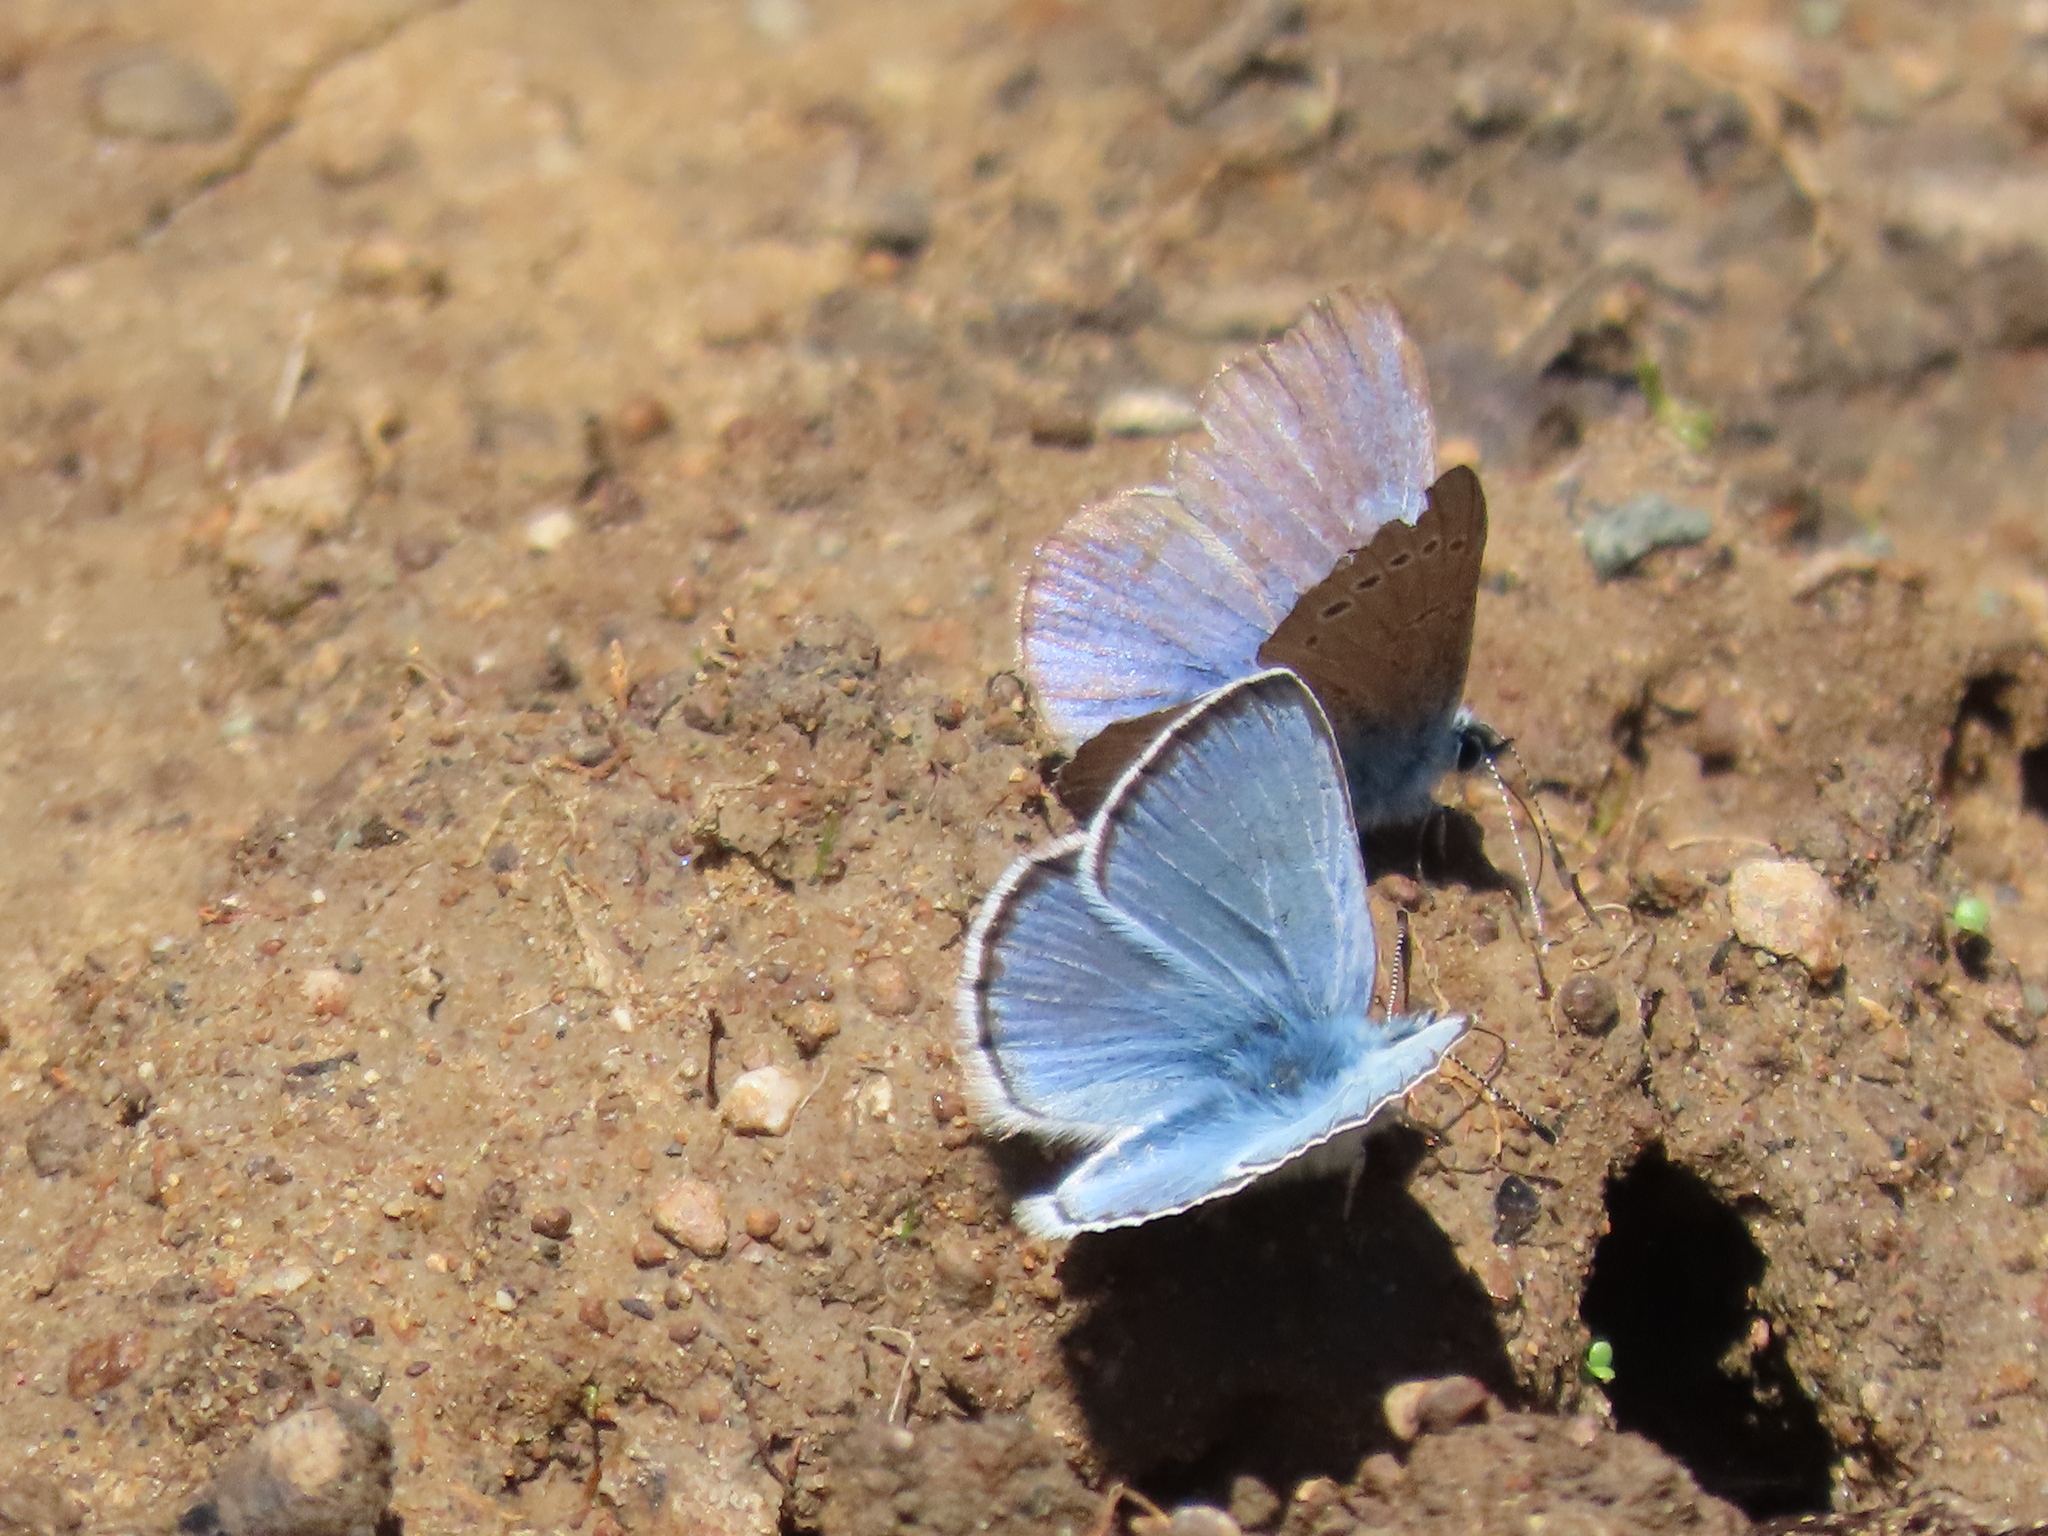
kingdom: Animalia
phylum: Arthropoda
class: Insecta
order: Lepidoptera
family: Lycaenidae
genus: Glaucopsyche
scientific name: Glaucopsyche lygdamus
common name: Silvery blue
